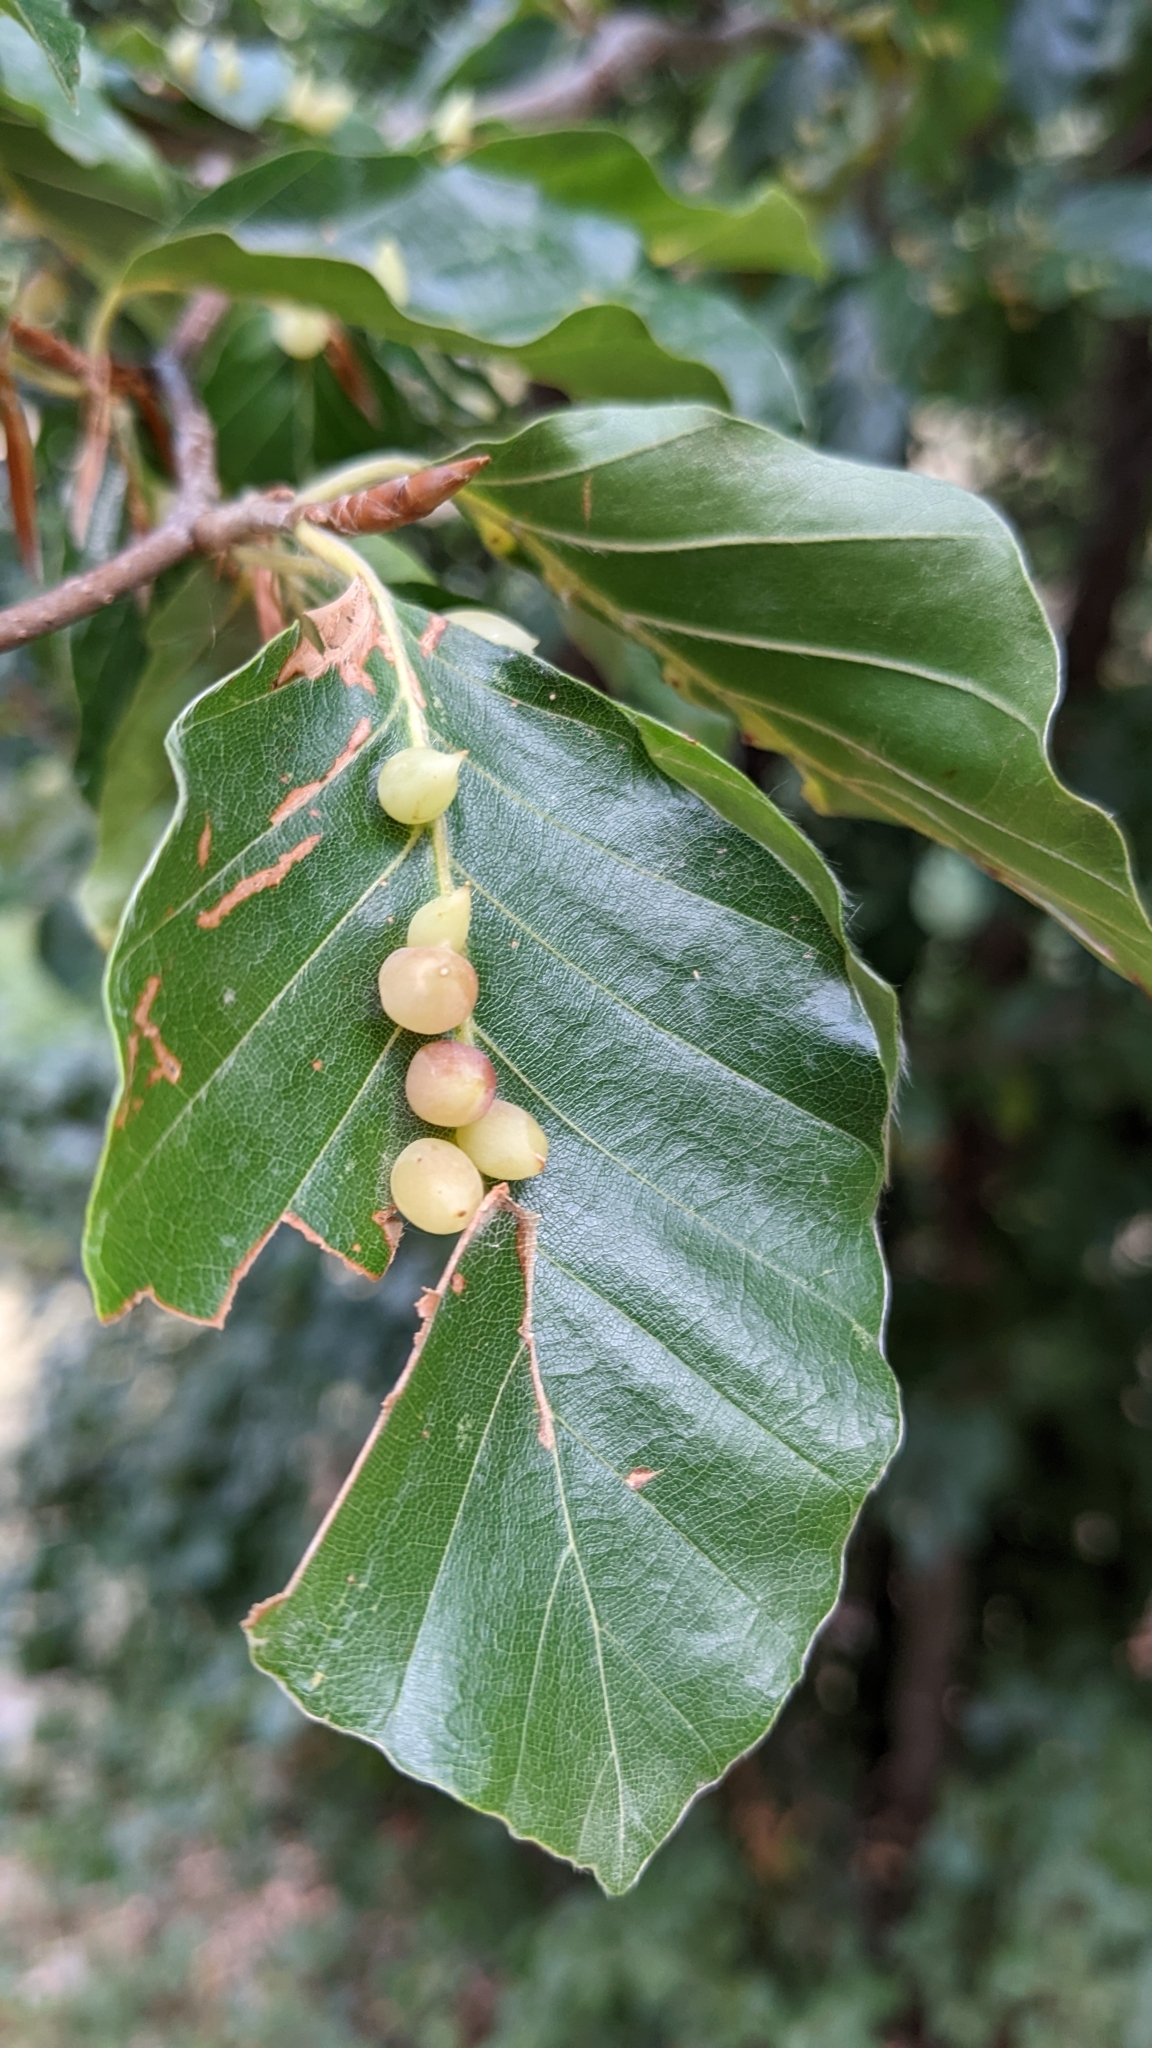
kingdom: Animalia
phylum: Arthropoda
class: Insecta
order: Diptera
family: Cecidomyiidae
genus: Mikiola
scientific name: Mikiola fagi
